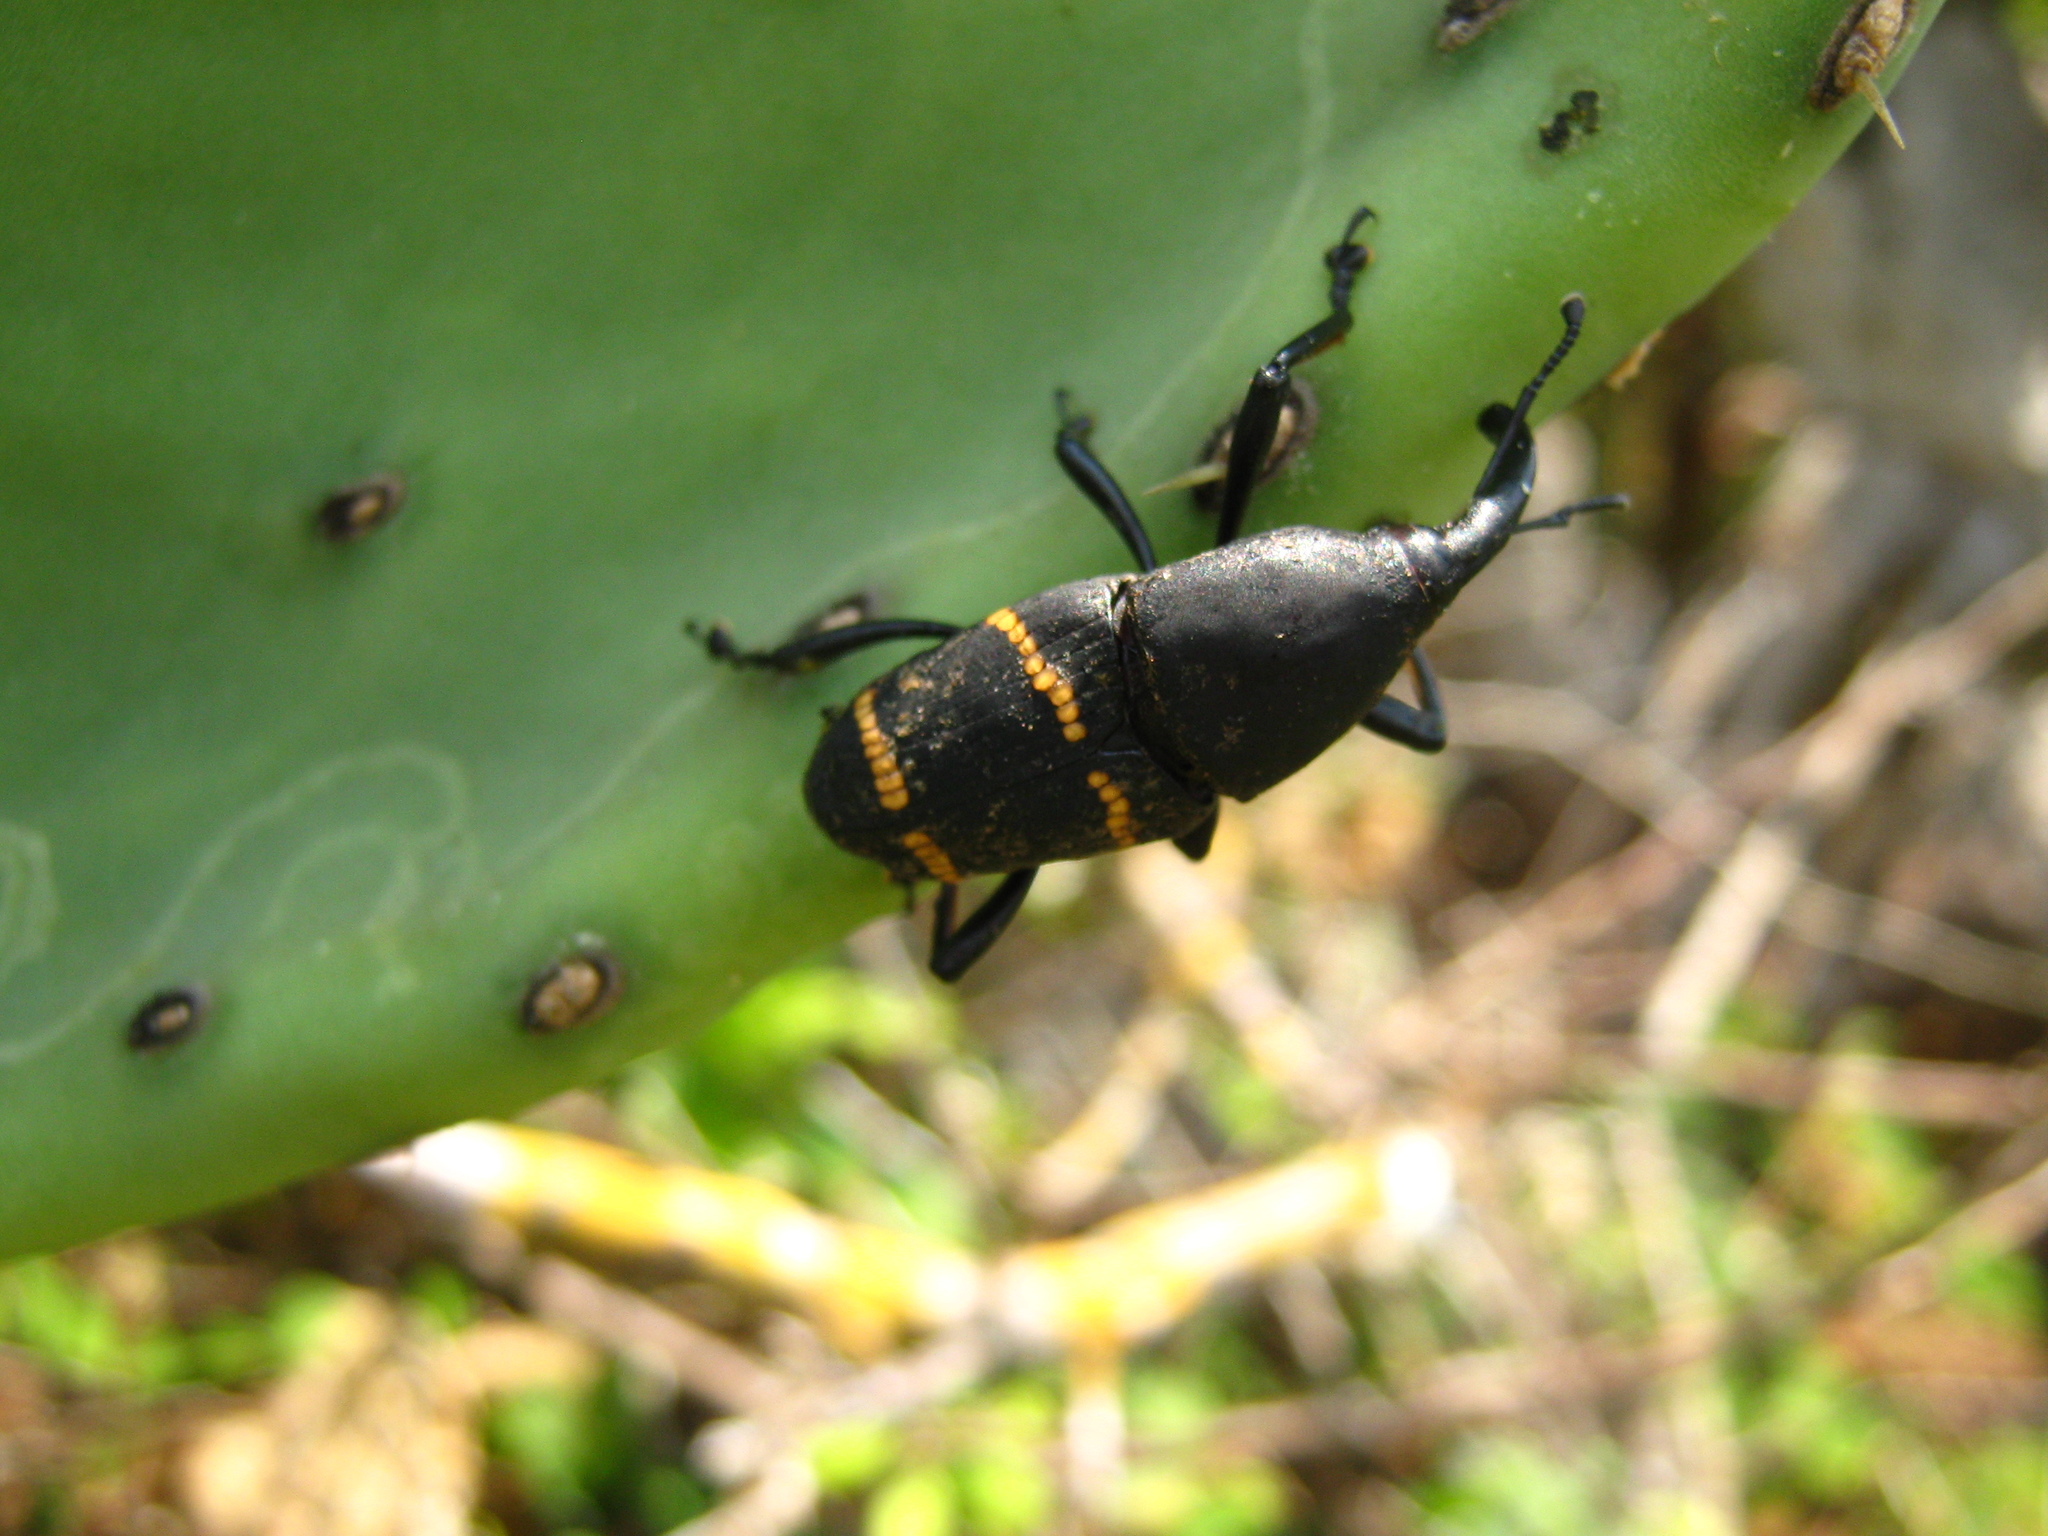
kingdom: Animalia
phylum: Arthropoda
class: Insecta
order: Coleoptera
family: Dryophthoridae
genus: Cactophagus
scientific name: Cactophagus spinolae
